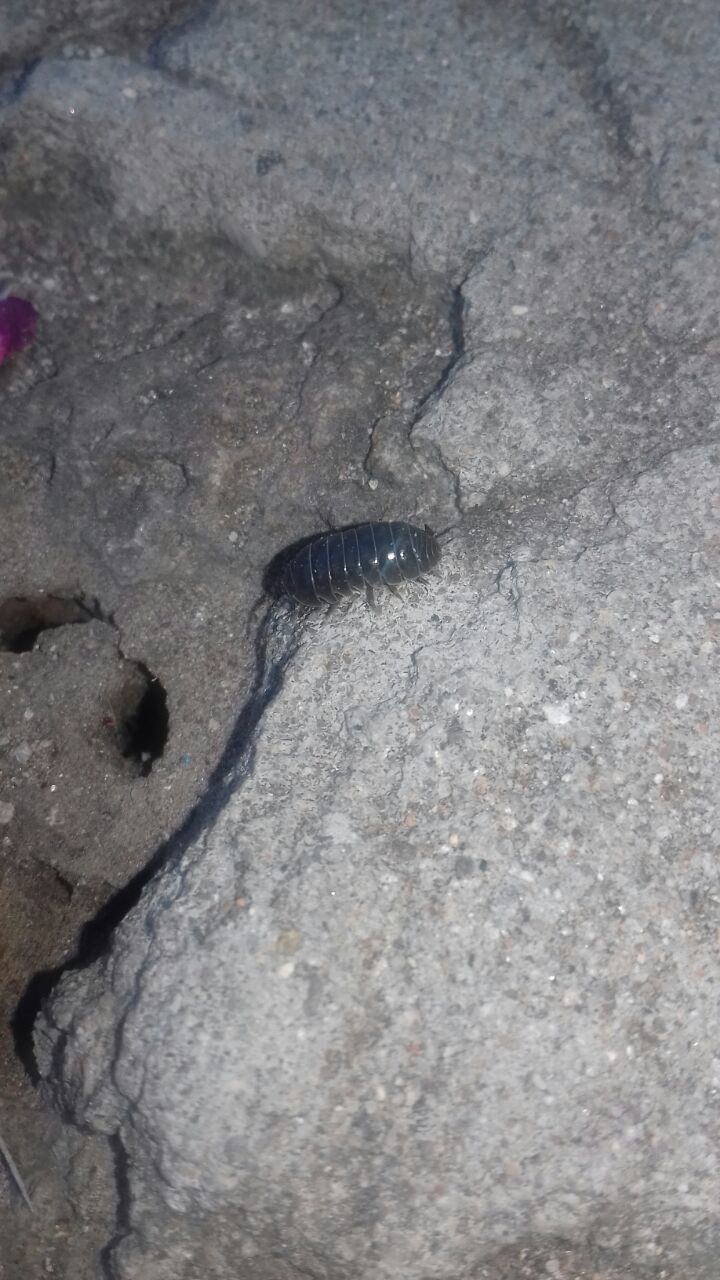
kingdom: Animalia
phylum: Arthropoda
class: Malacostraca
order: Isopoda
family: Armadillidiidae
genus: Armadillidium
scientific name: Armadillidium vulgare
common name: Common pill woodlouse
